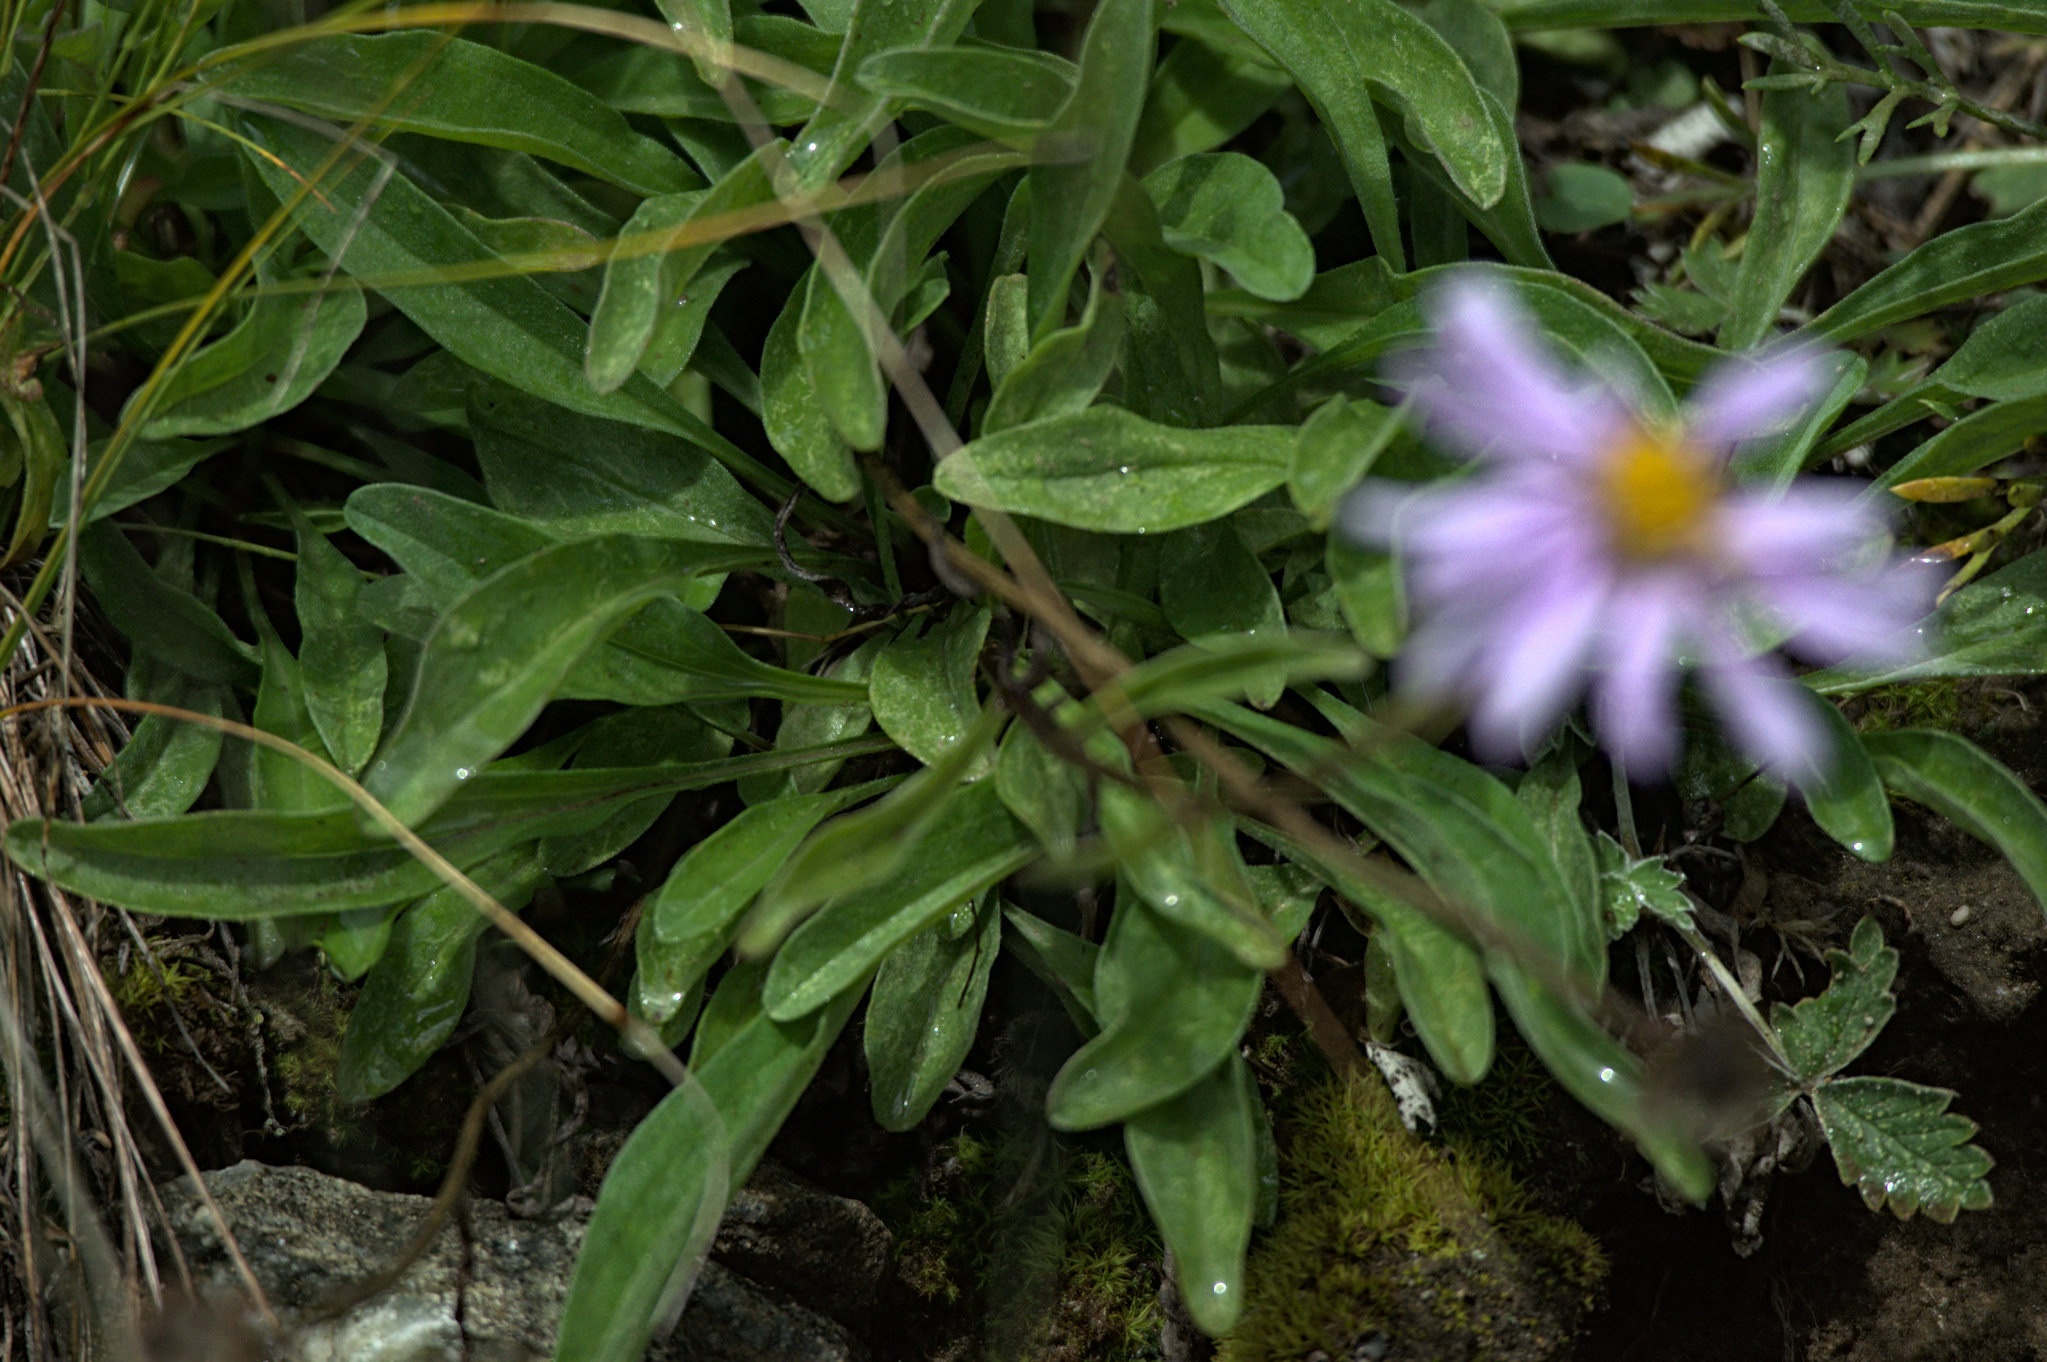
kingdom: Plantae
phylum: Tracheophyta
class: Magnoliopsida
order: Asterales
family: Asteraceae
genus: Aster
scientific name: Aster alpinus
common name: Alpine aster
